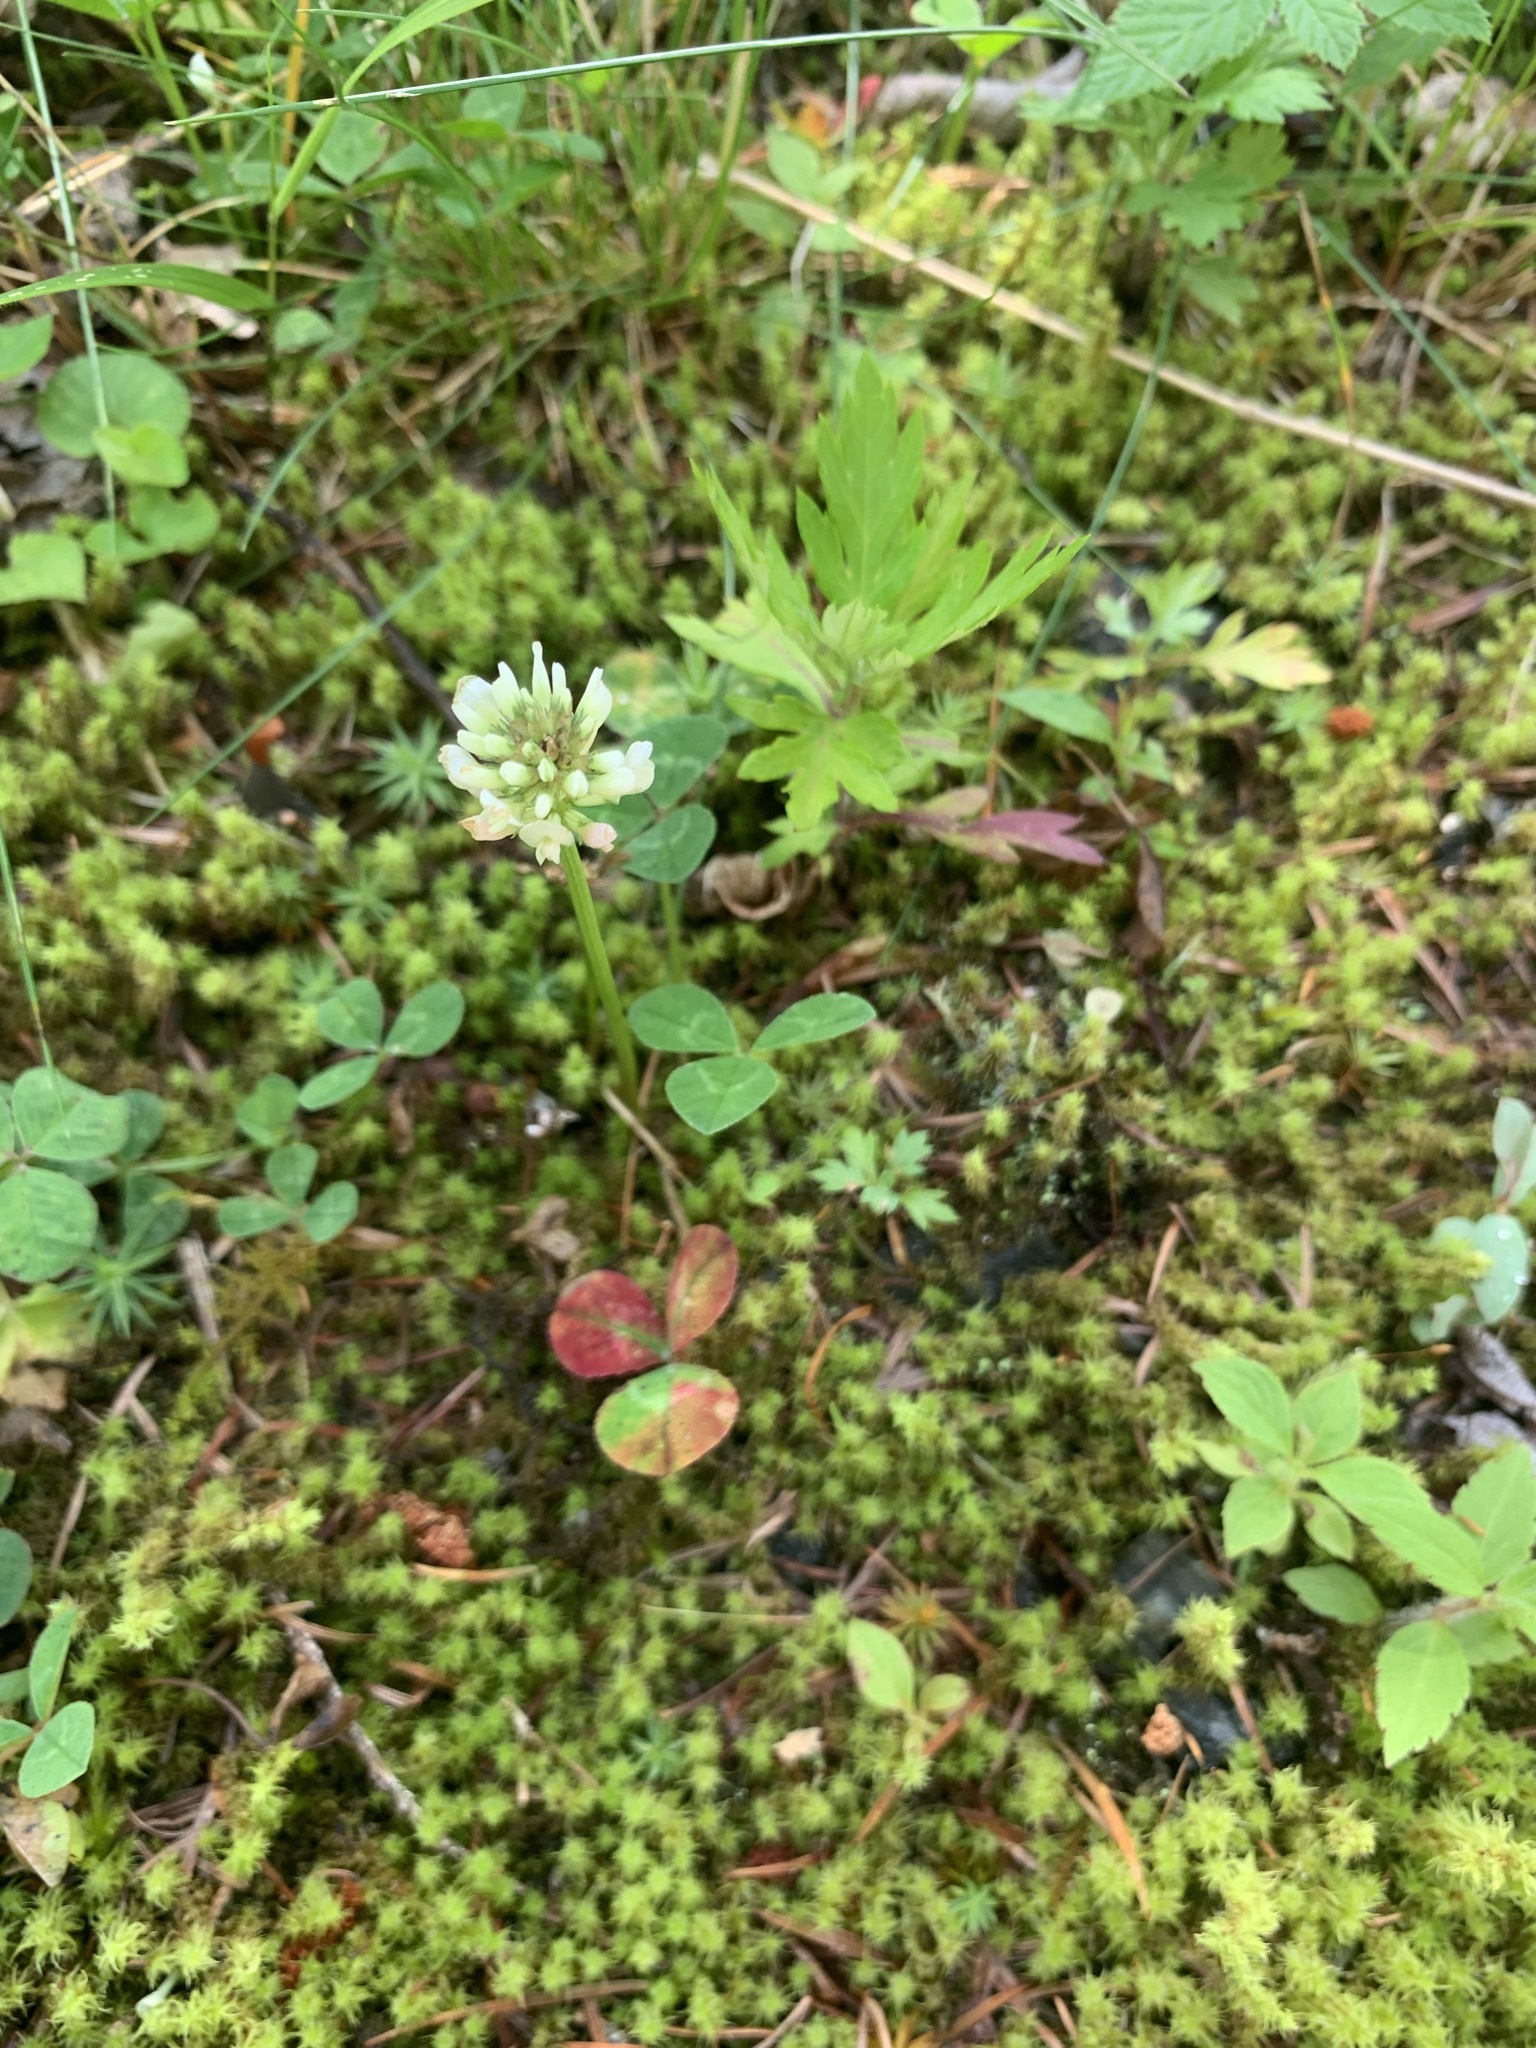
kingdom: Plantae
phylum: Tracheophyta
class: Magnoliopsida
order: Fabales
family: Fabaceae
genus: Trifolium
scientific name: Trifolium repens
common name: White clover
